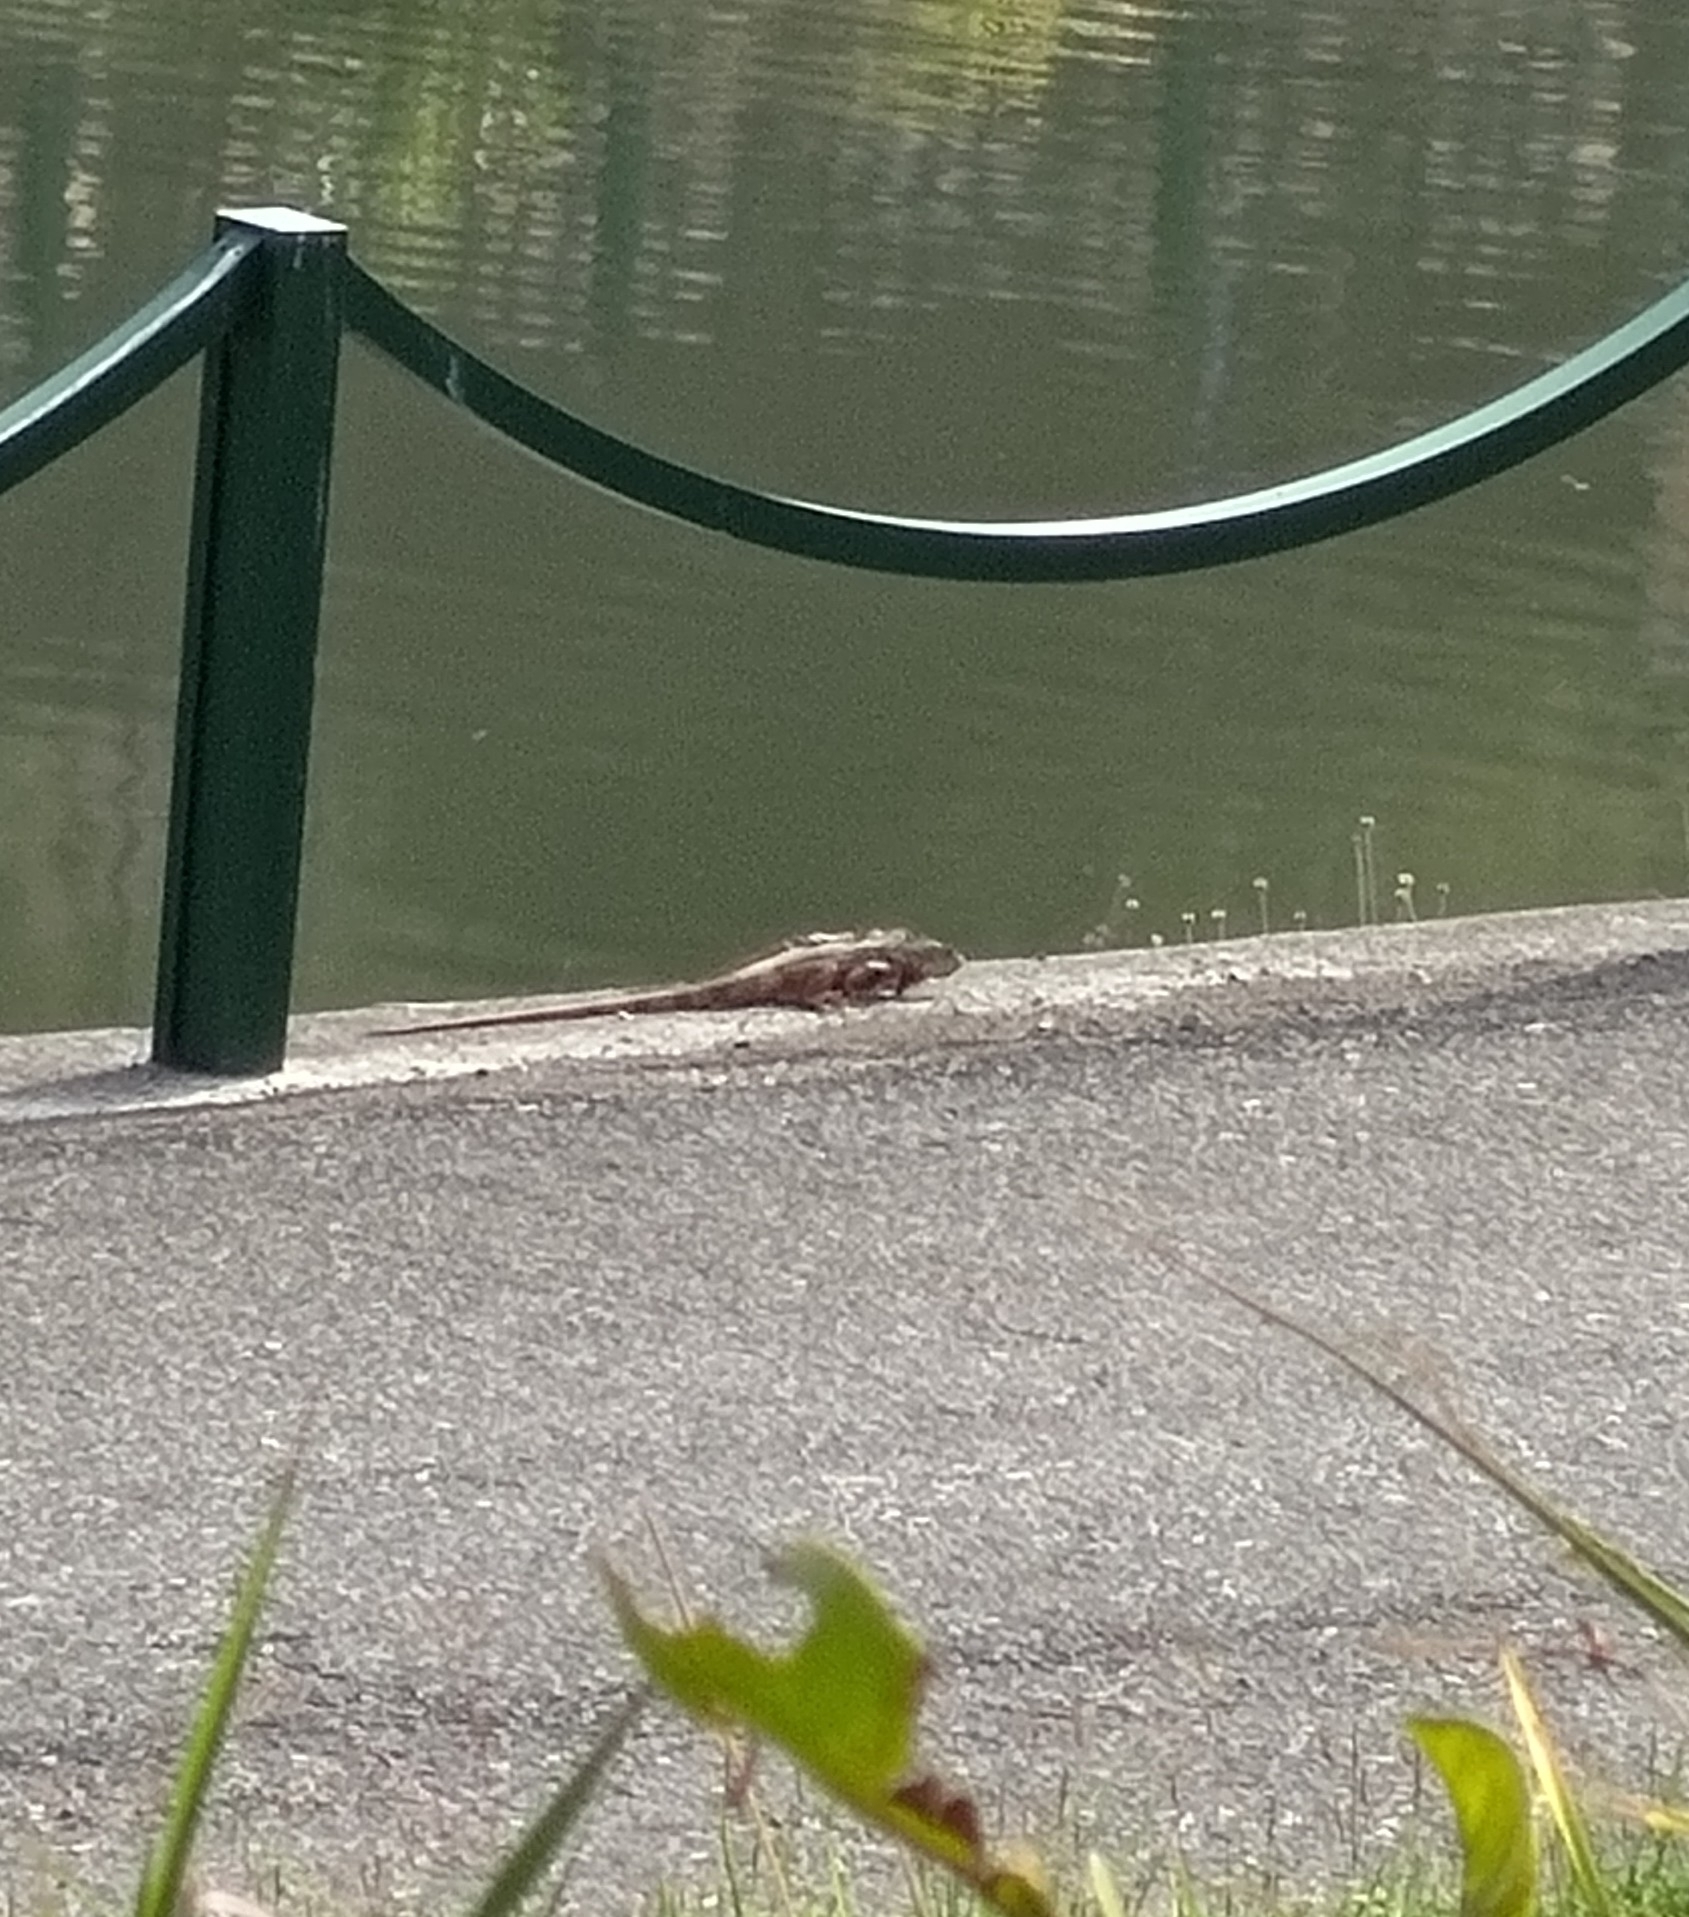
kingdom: Animalia
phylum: Chordata
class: Squamata
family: Iguanidae
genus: Iguana
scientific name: Iguana iguana
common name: Green iguana
